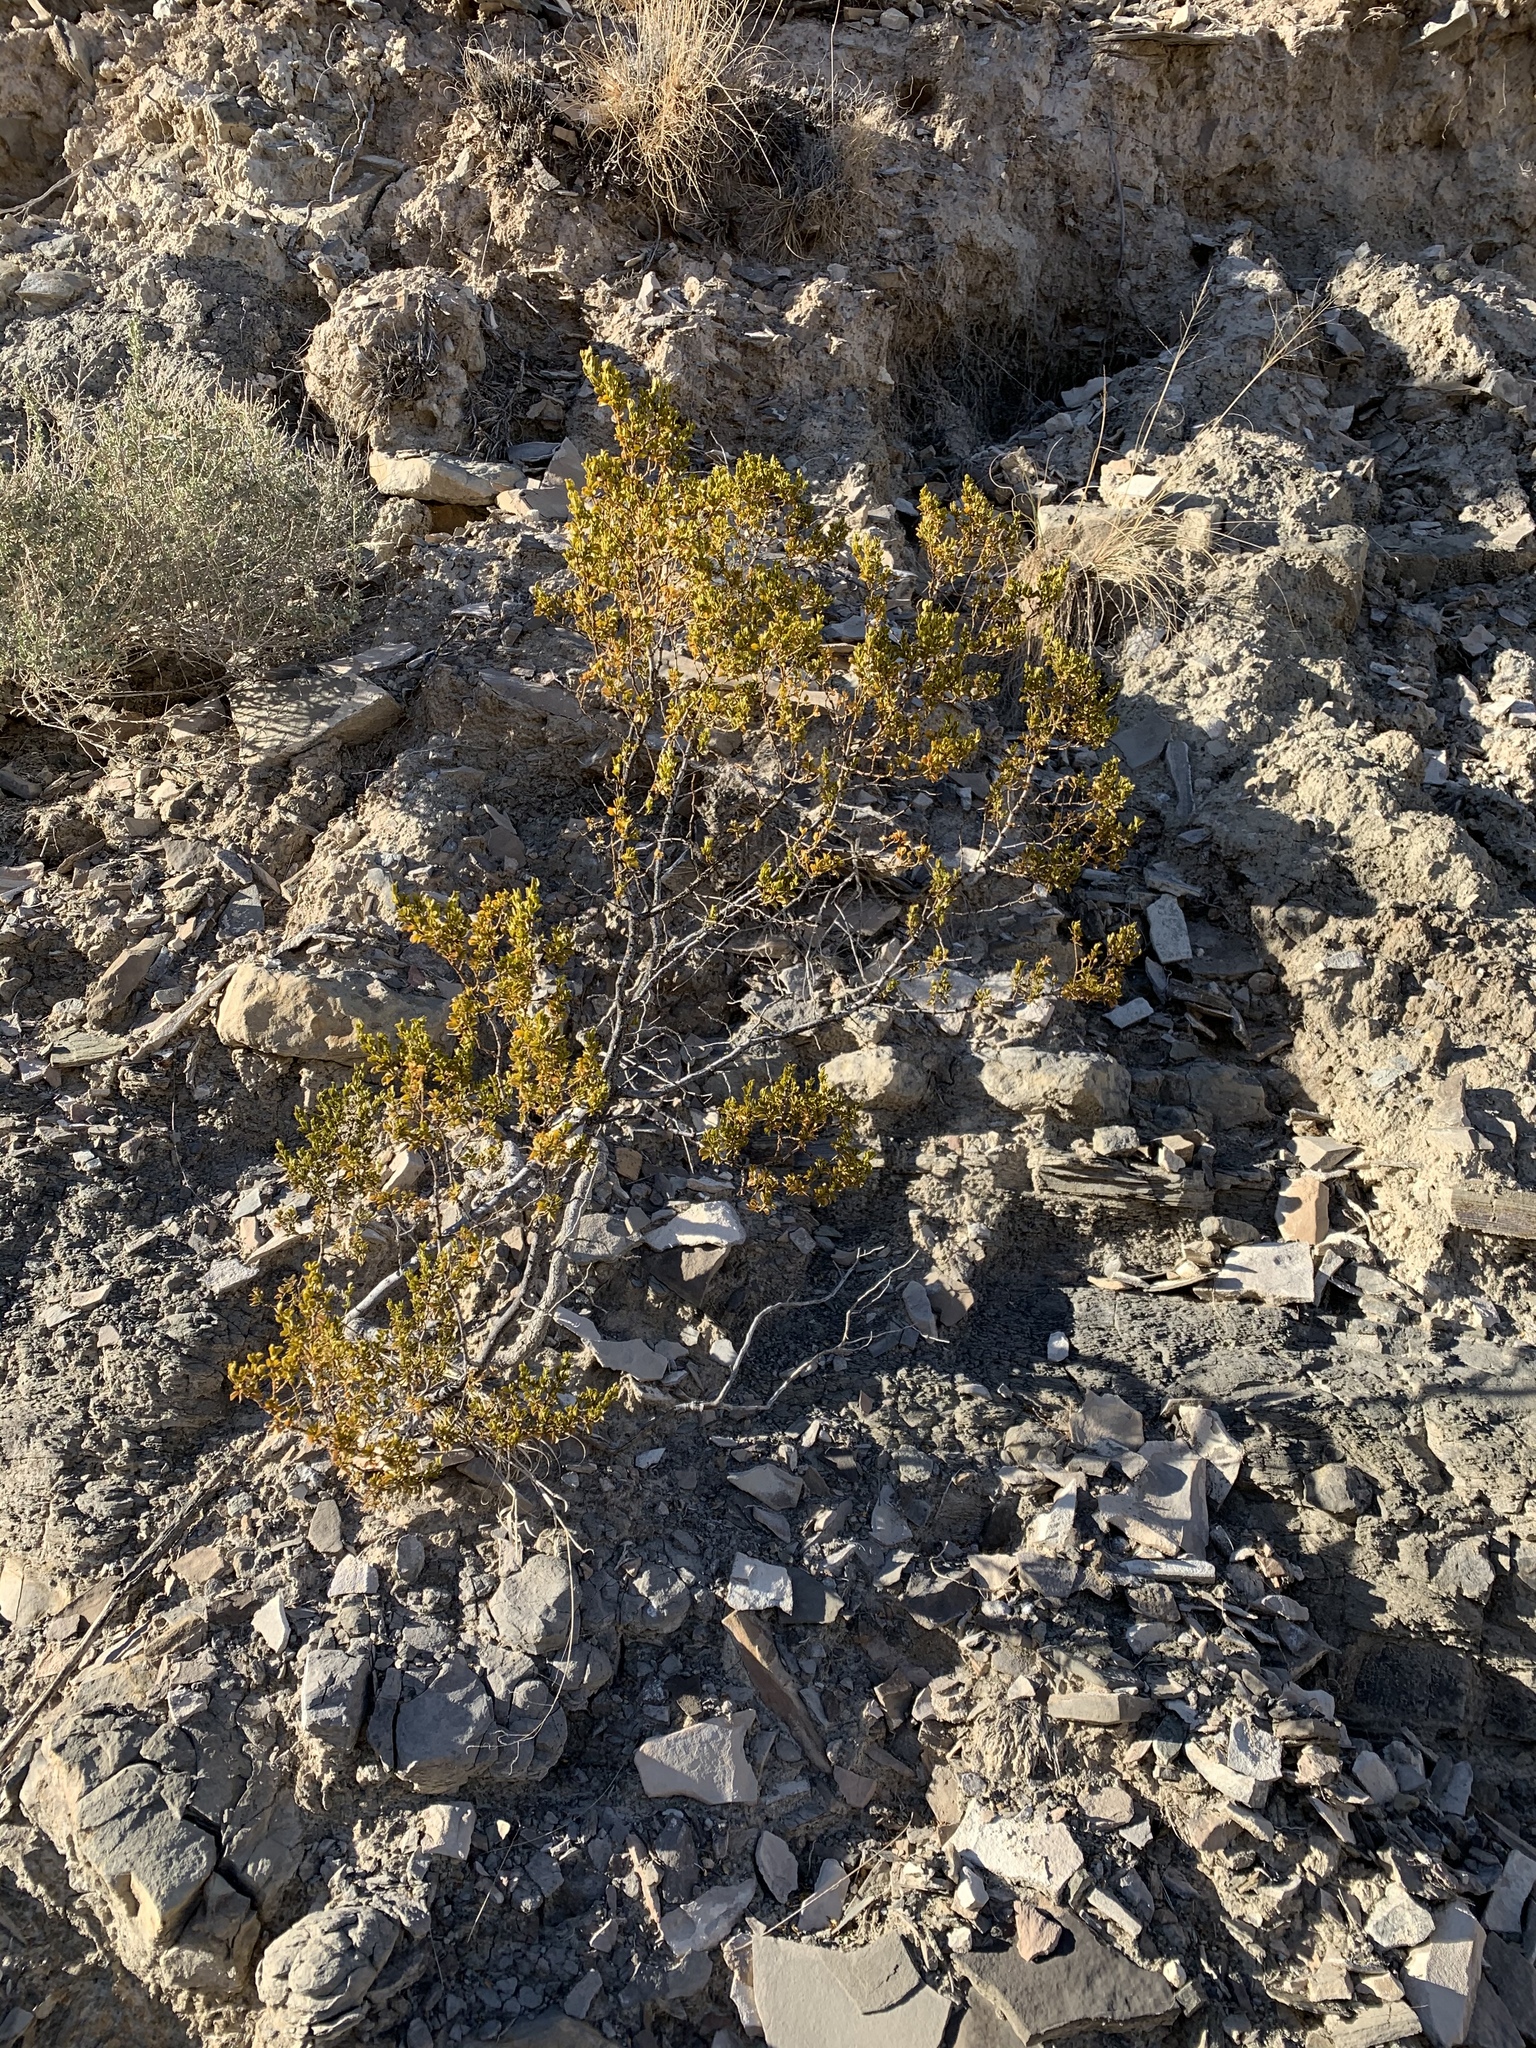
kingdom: Plantae
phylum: Tracheophyta
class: Magnoliopsida
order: Zygophyllales
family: Zygophyllaceae
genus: Larrea
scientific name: Larrea tridentata
